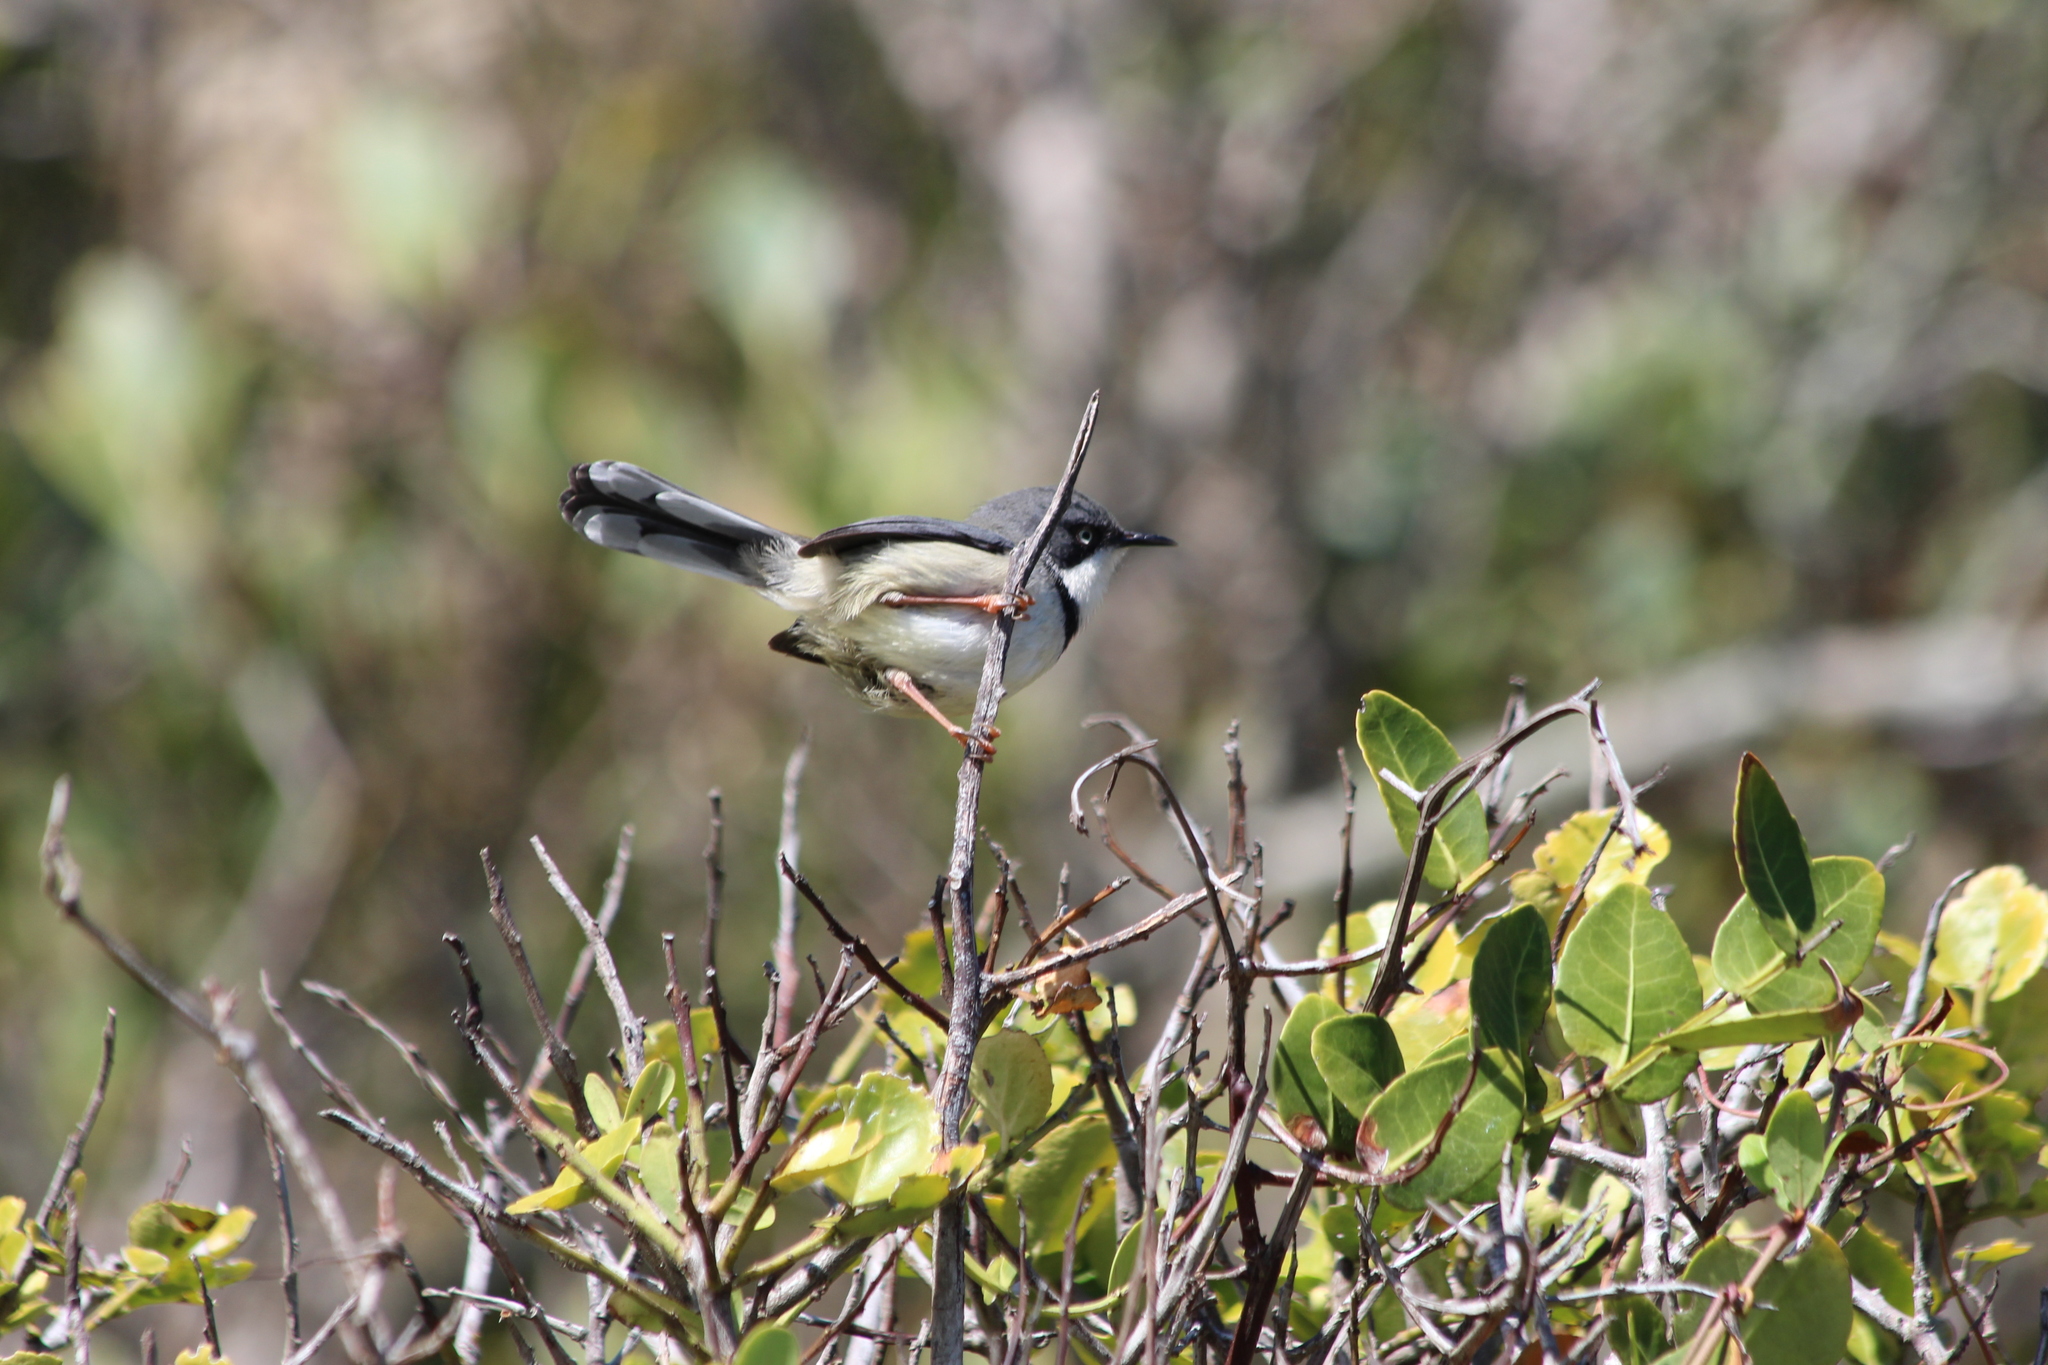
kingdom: Animalia
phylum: Chordata
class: Aves
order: Passeriformes
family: Cisticolidae
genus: Apalis
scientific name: Apalis thoracica
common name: Bar-throated apalis
